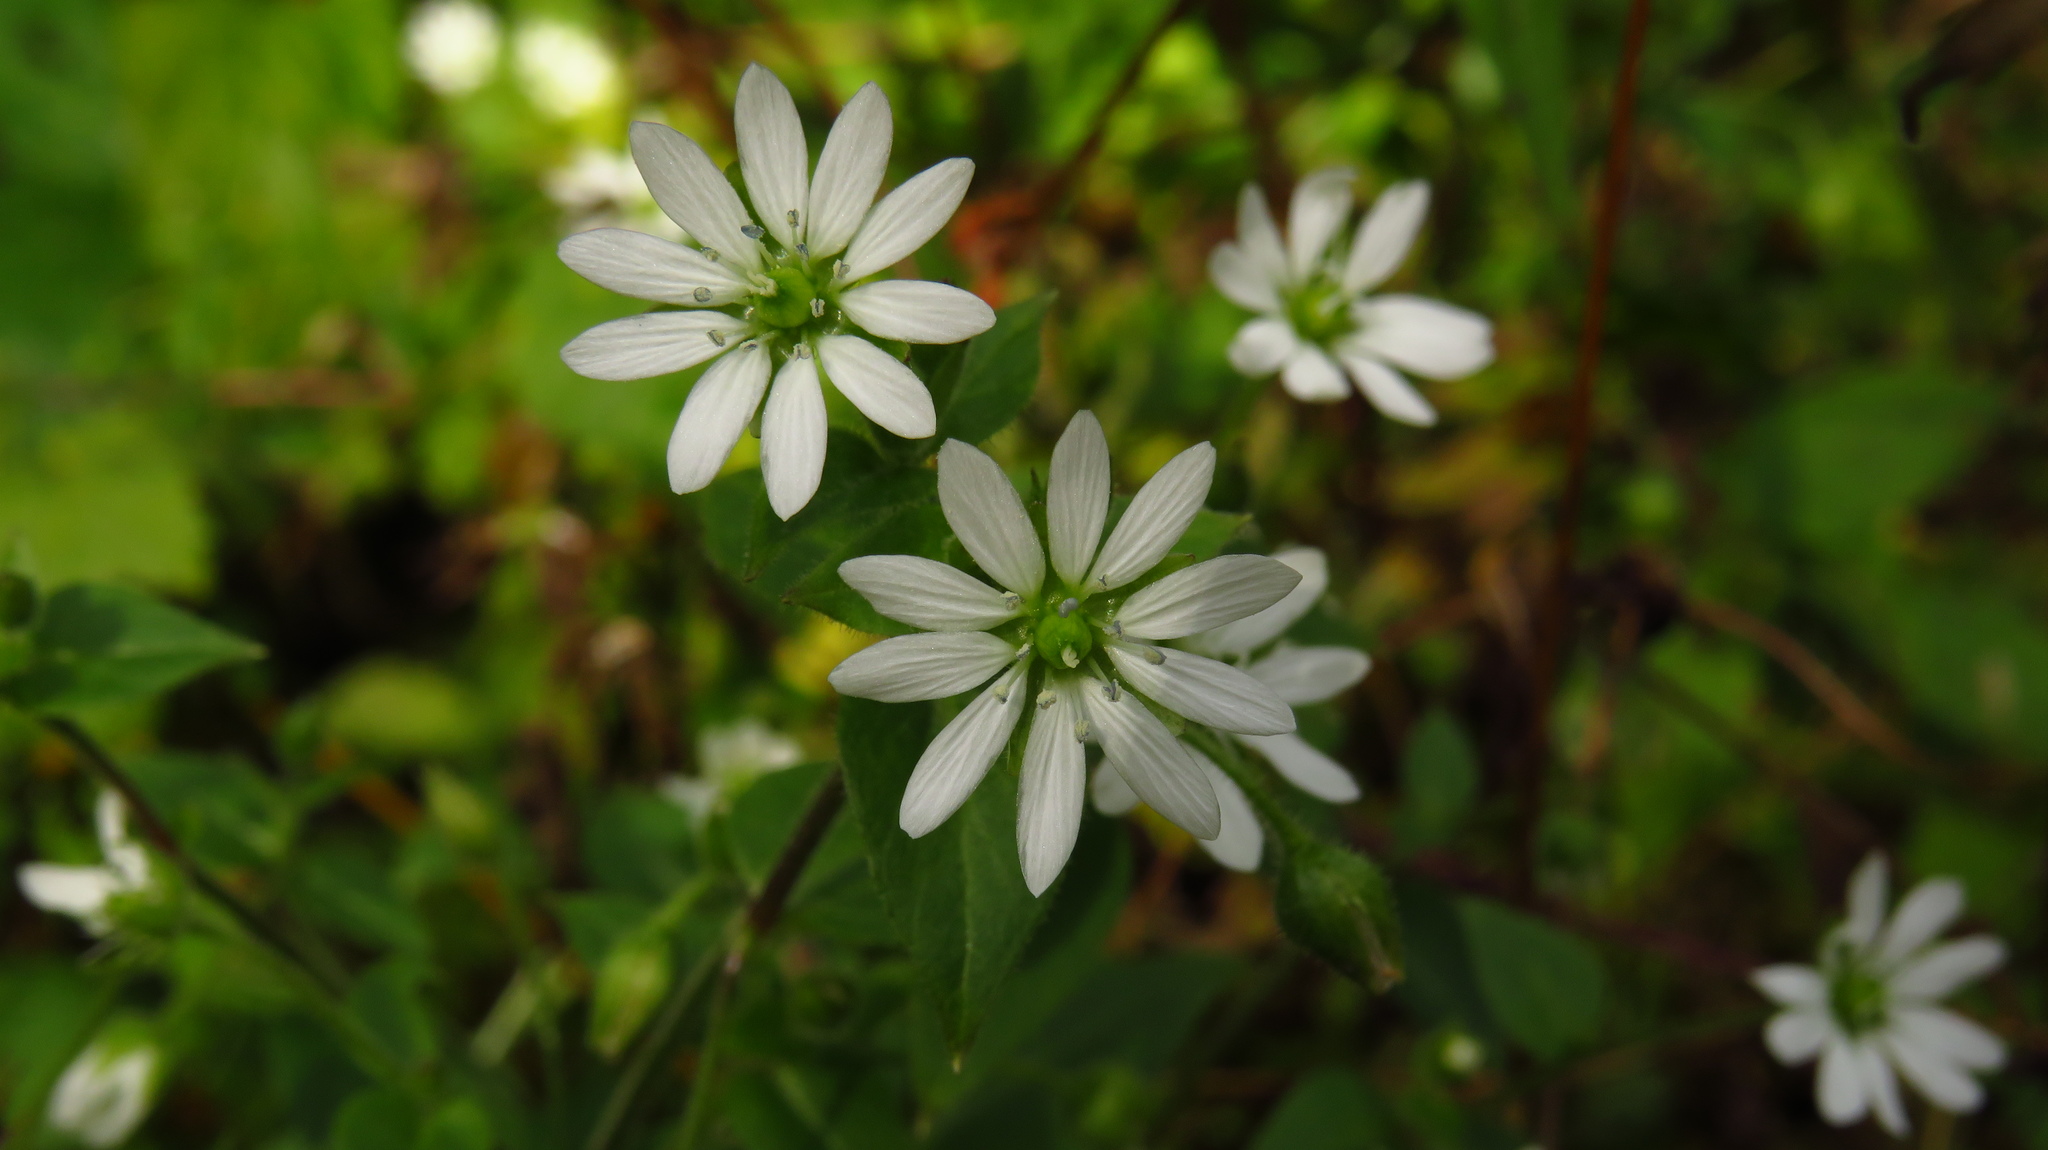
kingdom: Plantae
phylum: Tracheophyta
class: Magnoliopsida
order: Caryophyllales
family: Caryophyllaceae
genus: Stellaria
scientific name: Stellaria aquatica
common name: Water chickweed
